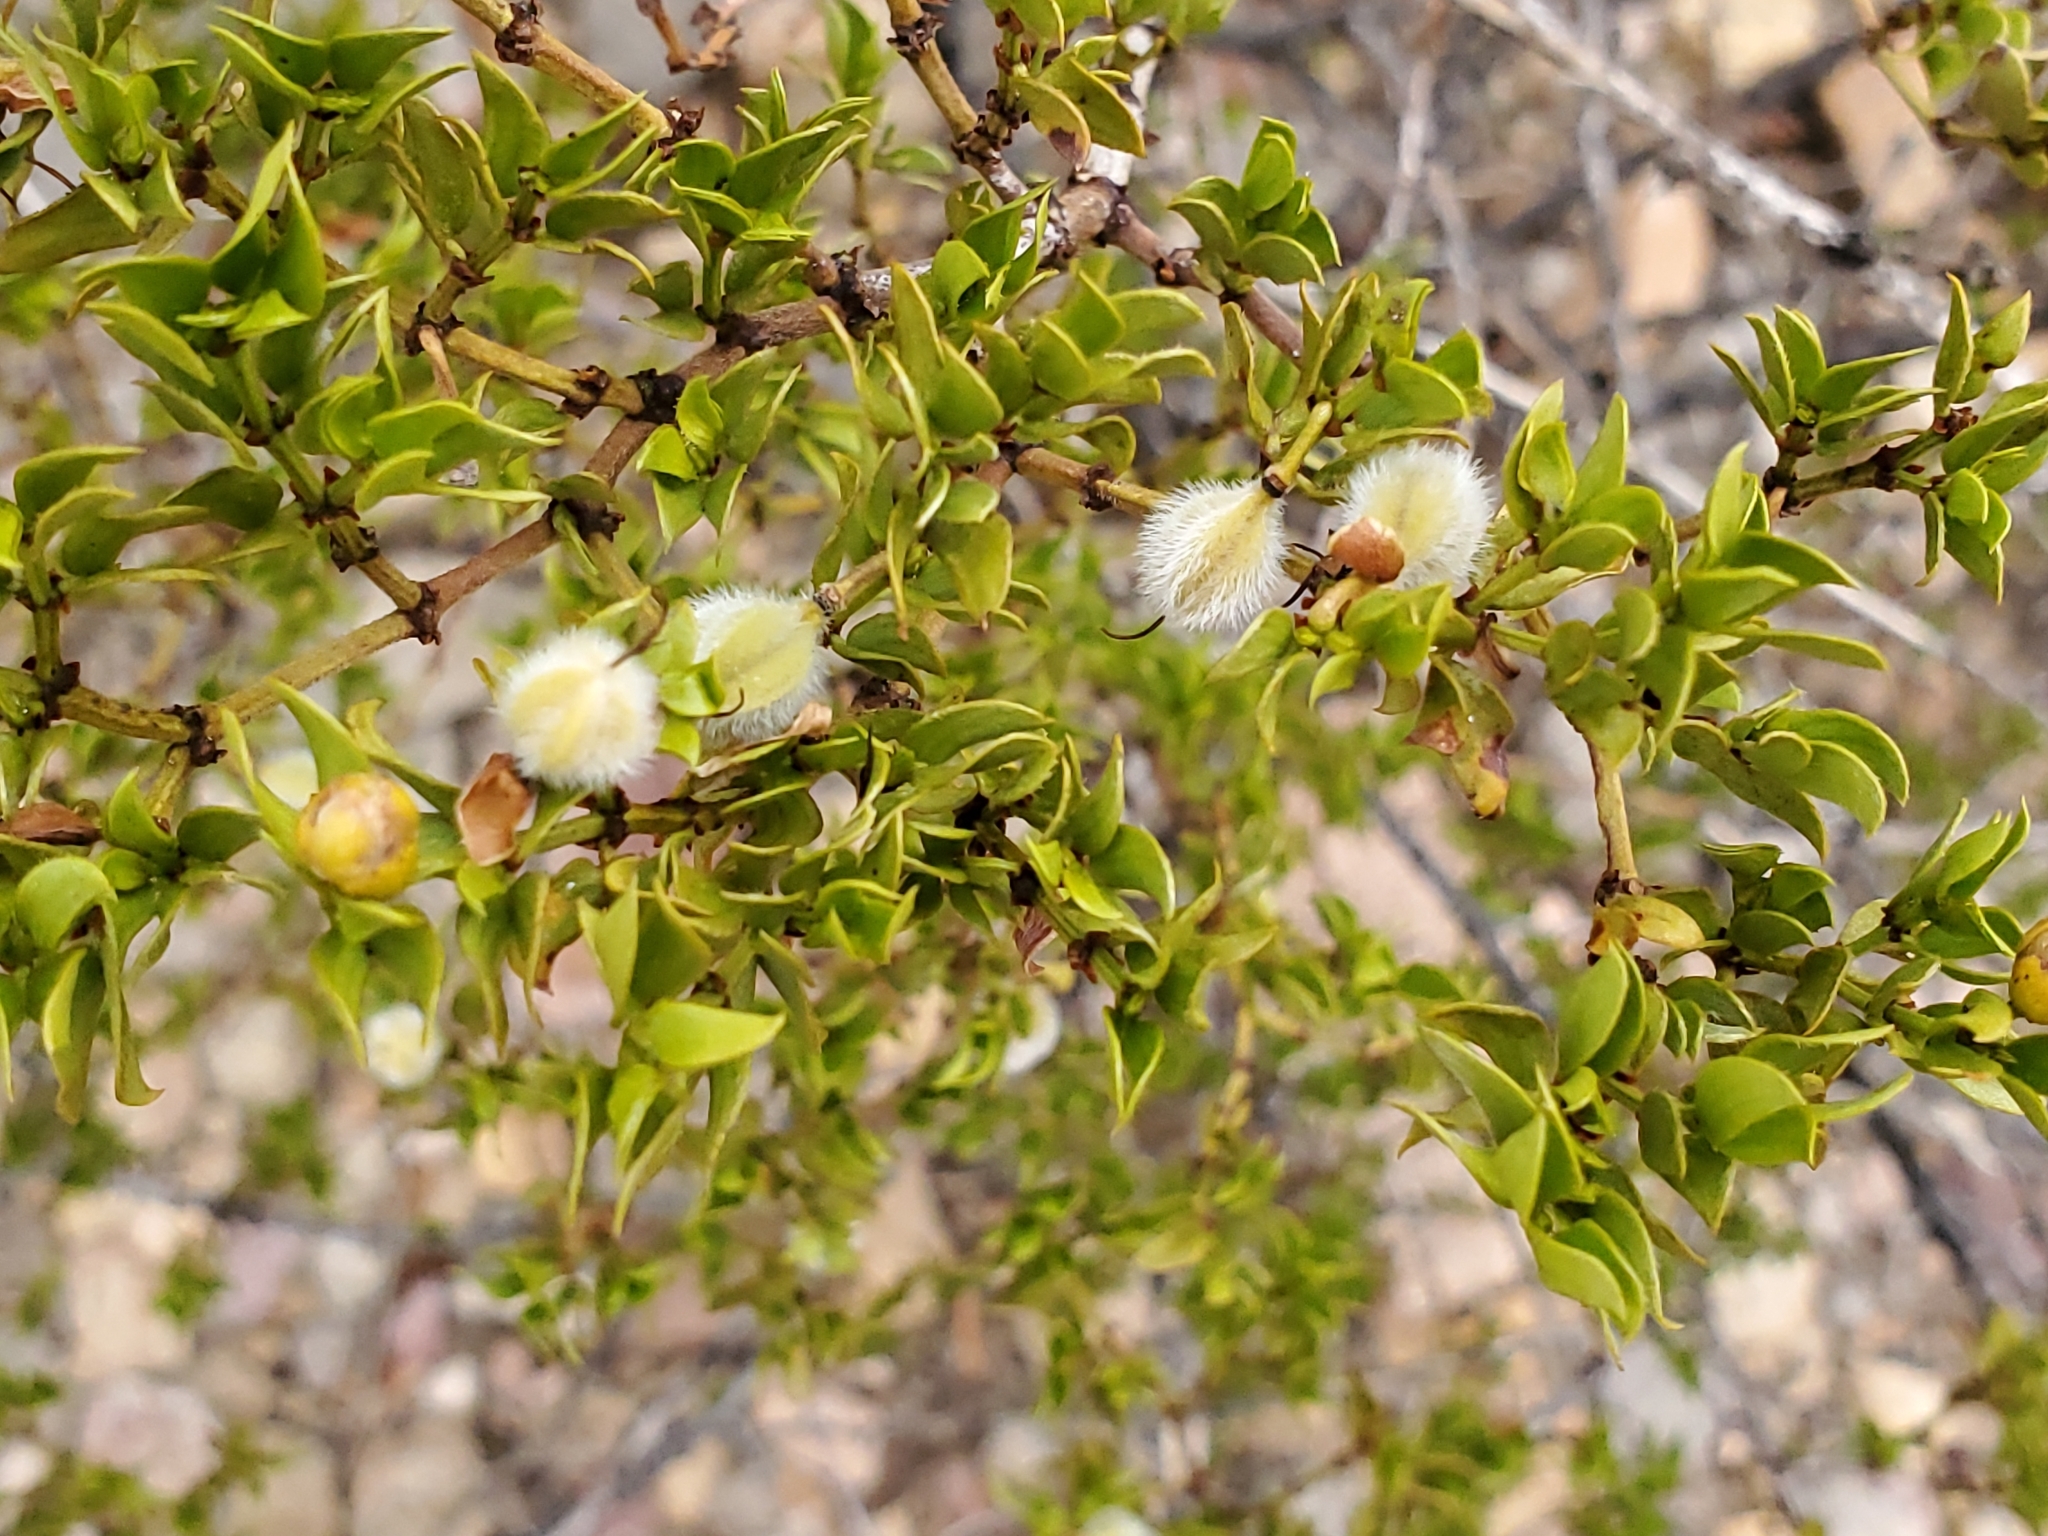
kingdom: Plantae
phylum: Tracheophyta
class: Magnoliopsida
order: Zygophyllales
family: Zygophyllaceae
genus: Larrea
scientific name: Larrea tridentata
